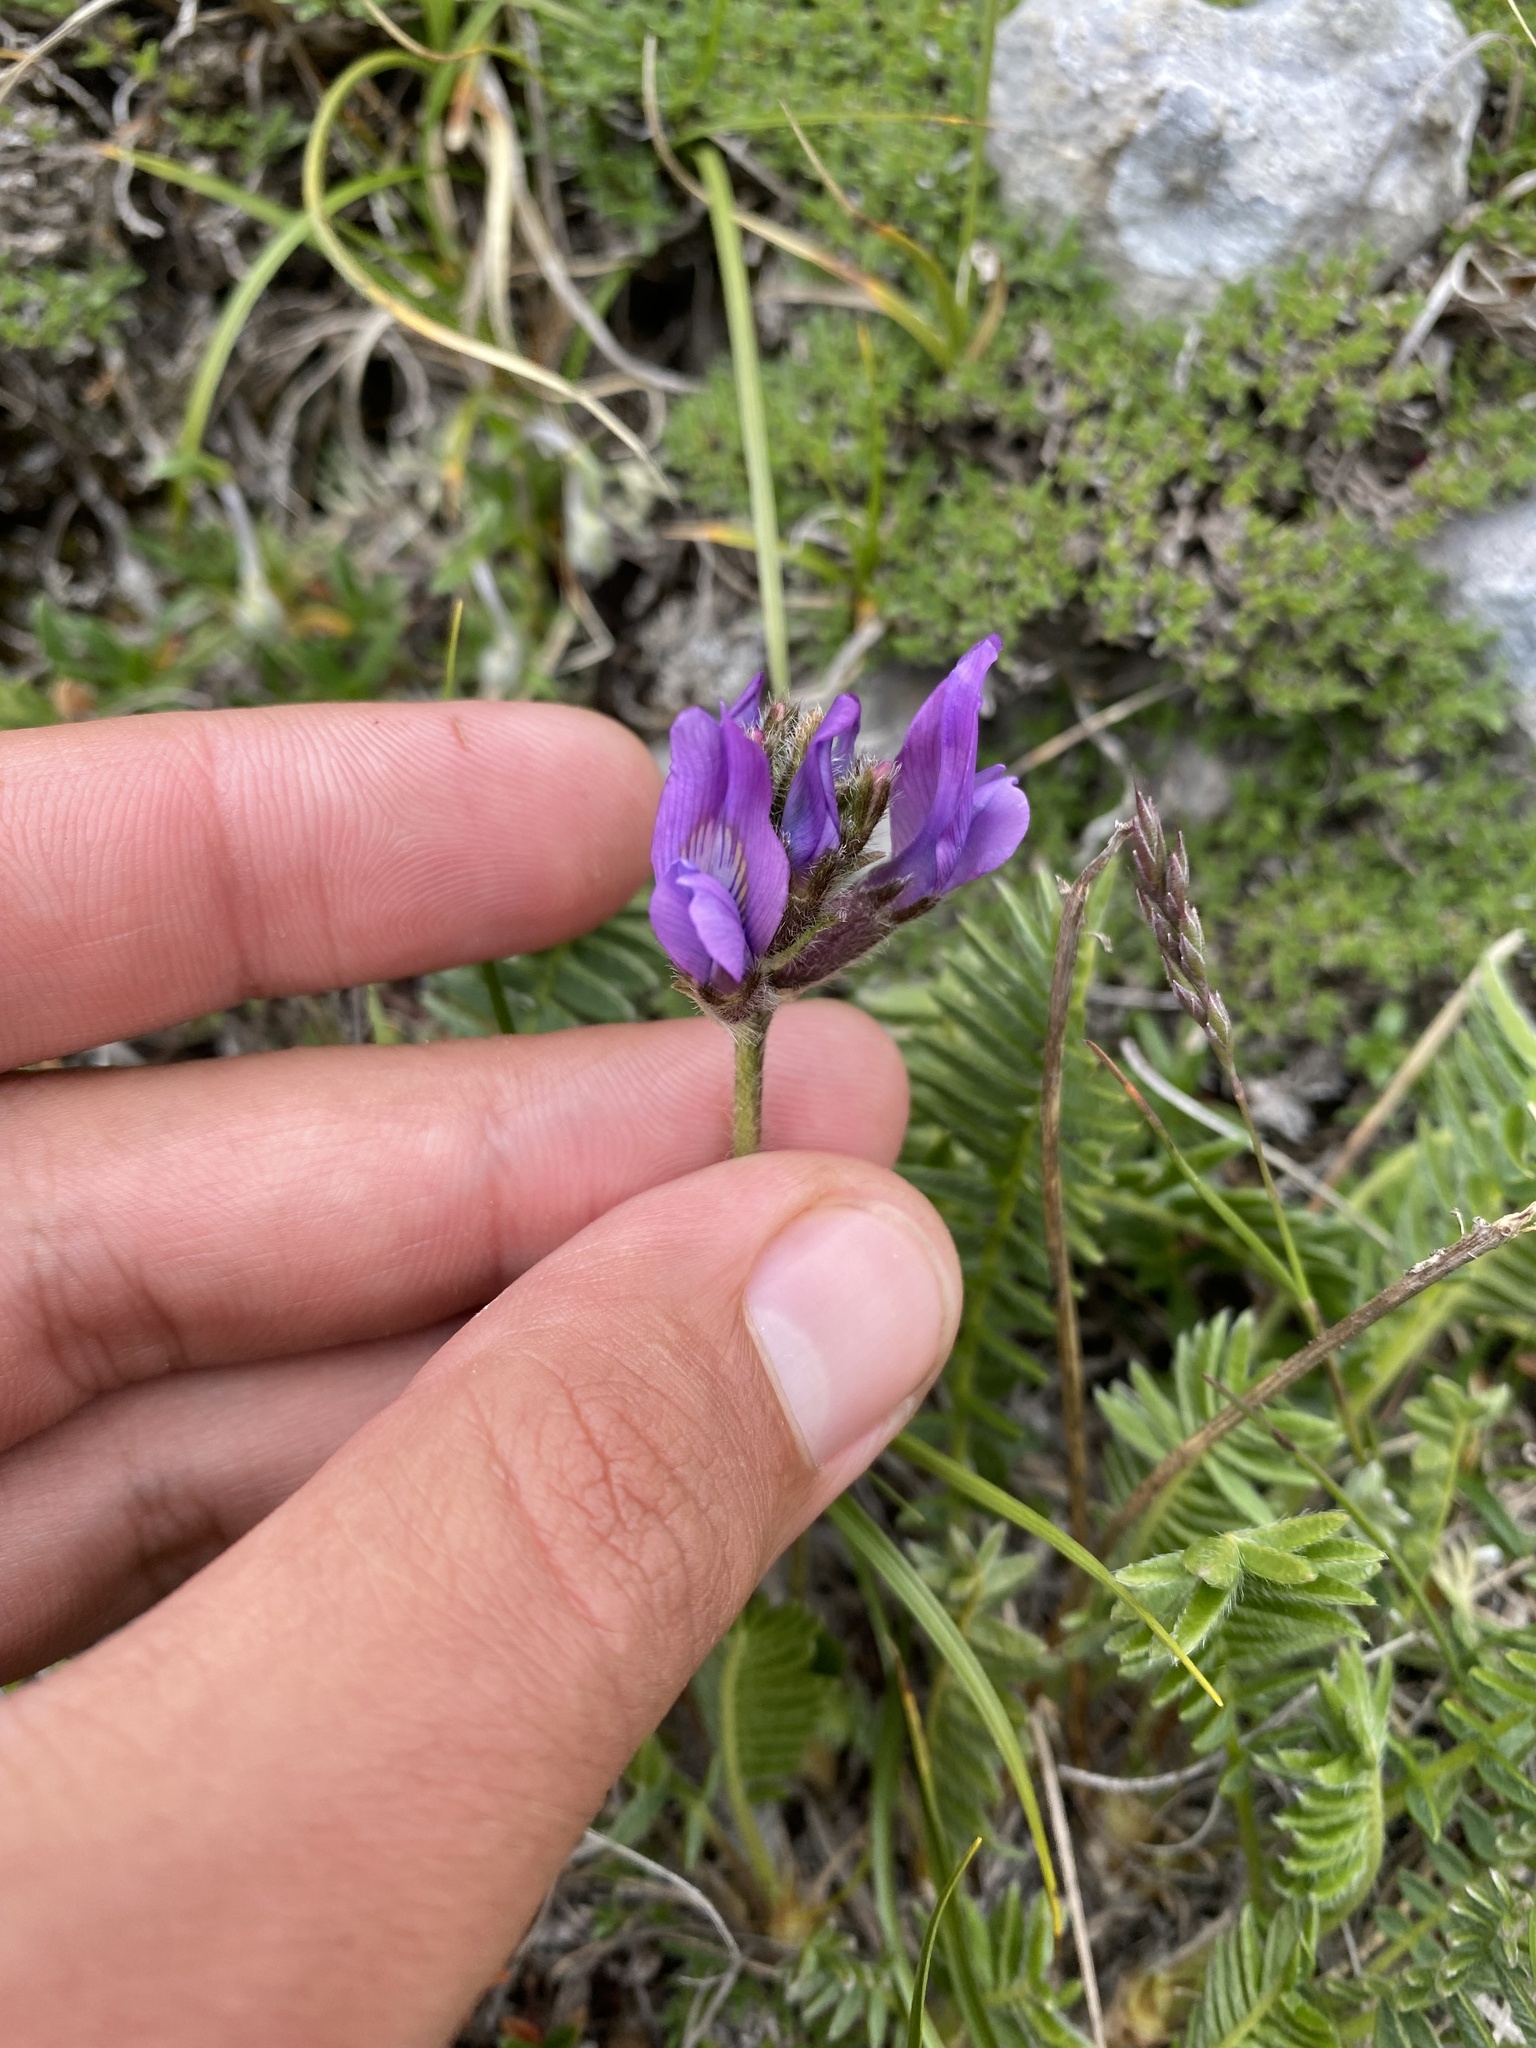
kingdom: Plantae
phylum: Tracheophyta
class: Magnoliopsida
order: Fabales
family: Fabaceae
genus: Oxytropis
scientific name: Oxytropis lazica
